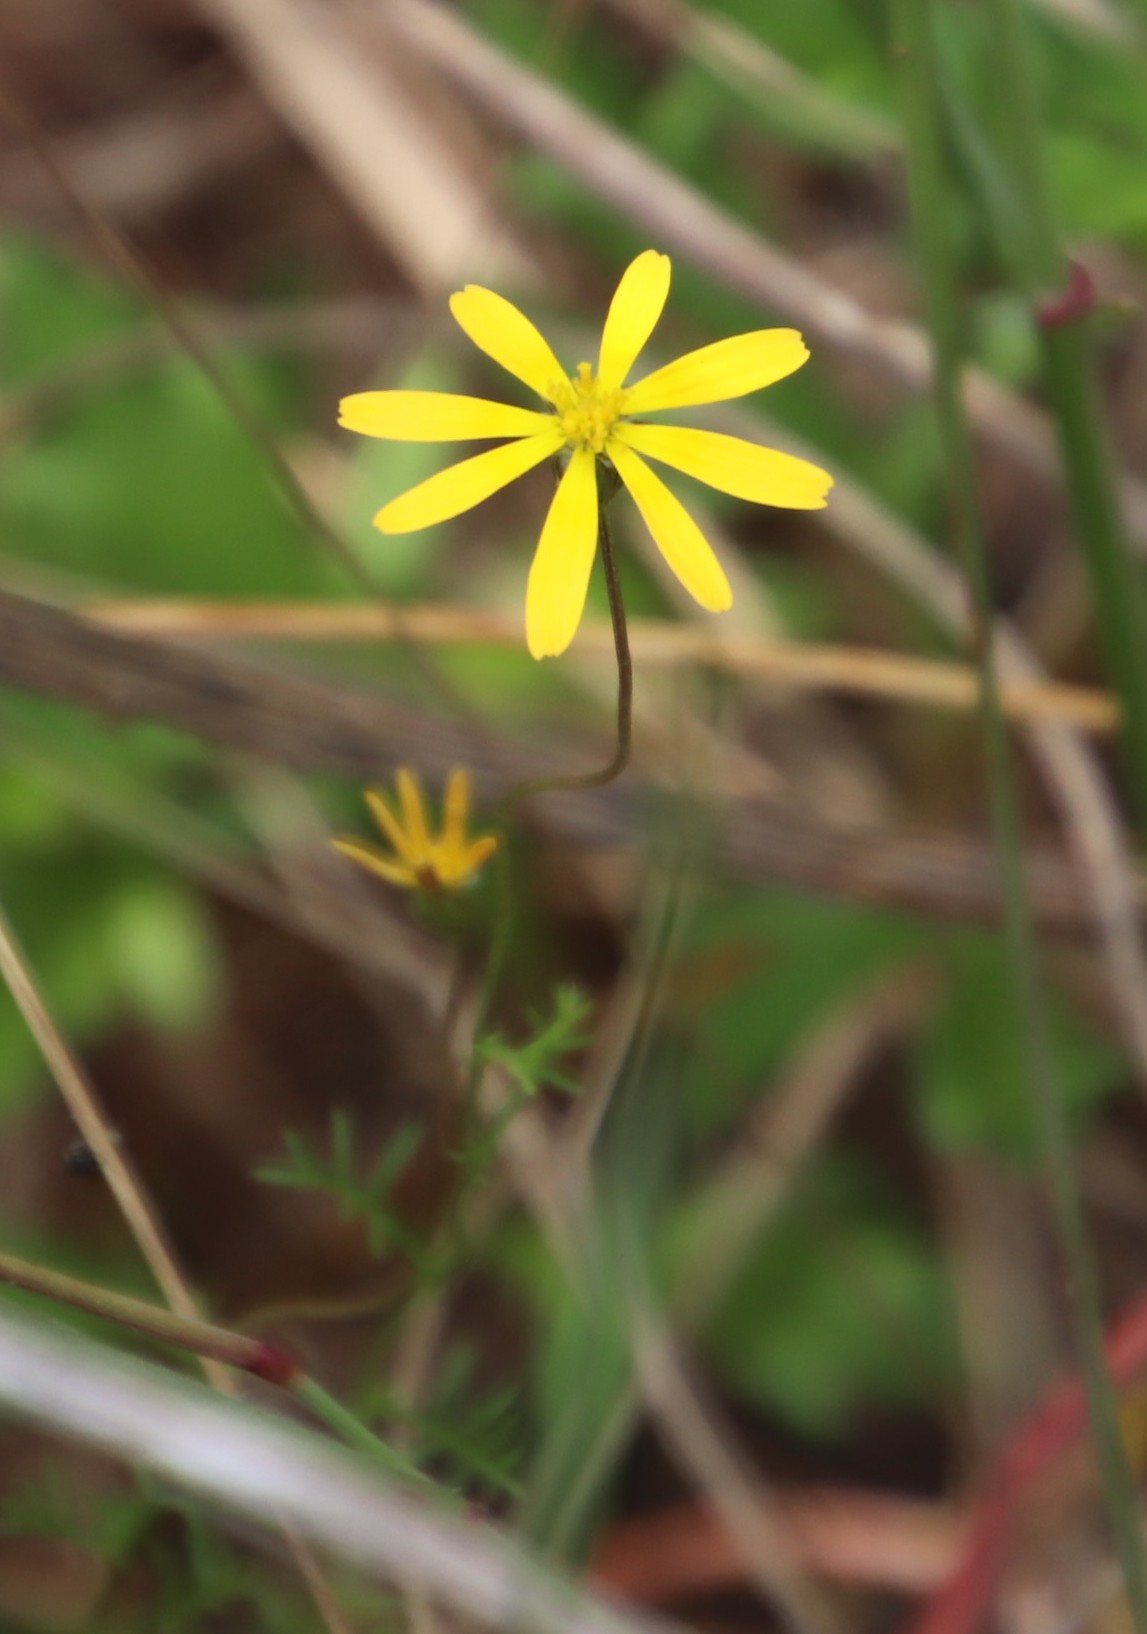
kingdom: Plantae
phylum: Tracheophyta
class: Magnoliopsida
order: Asterales
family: Asteraceae
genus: Ursinia
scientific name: Ursinia anthemoides
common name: Ursinia
